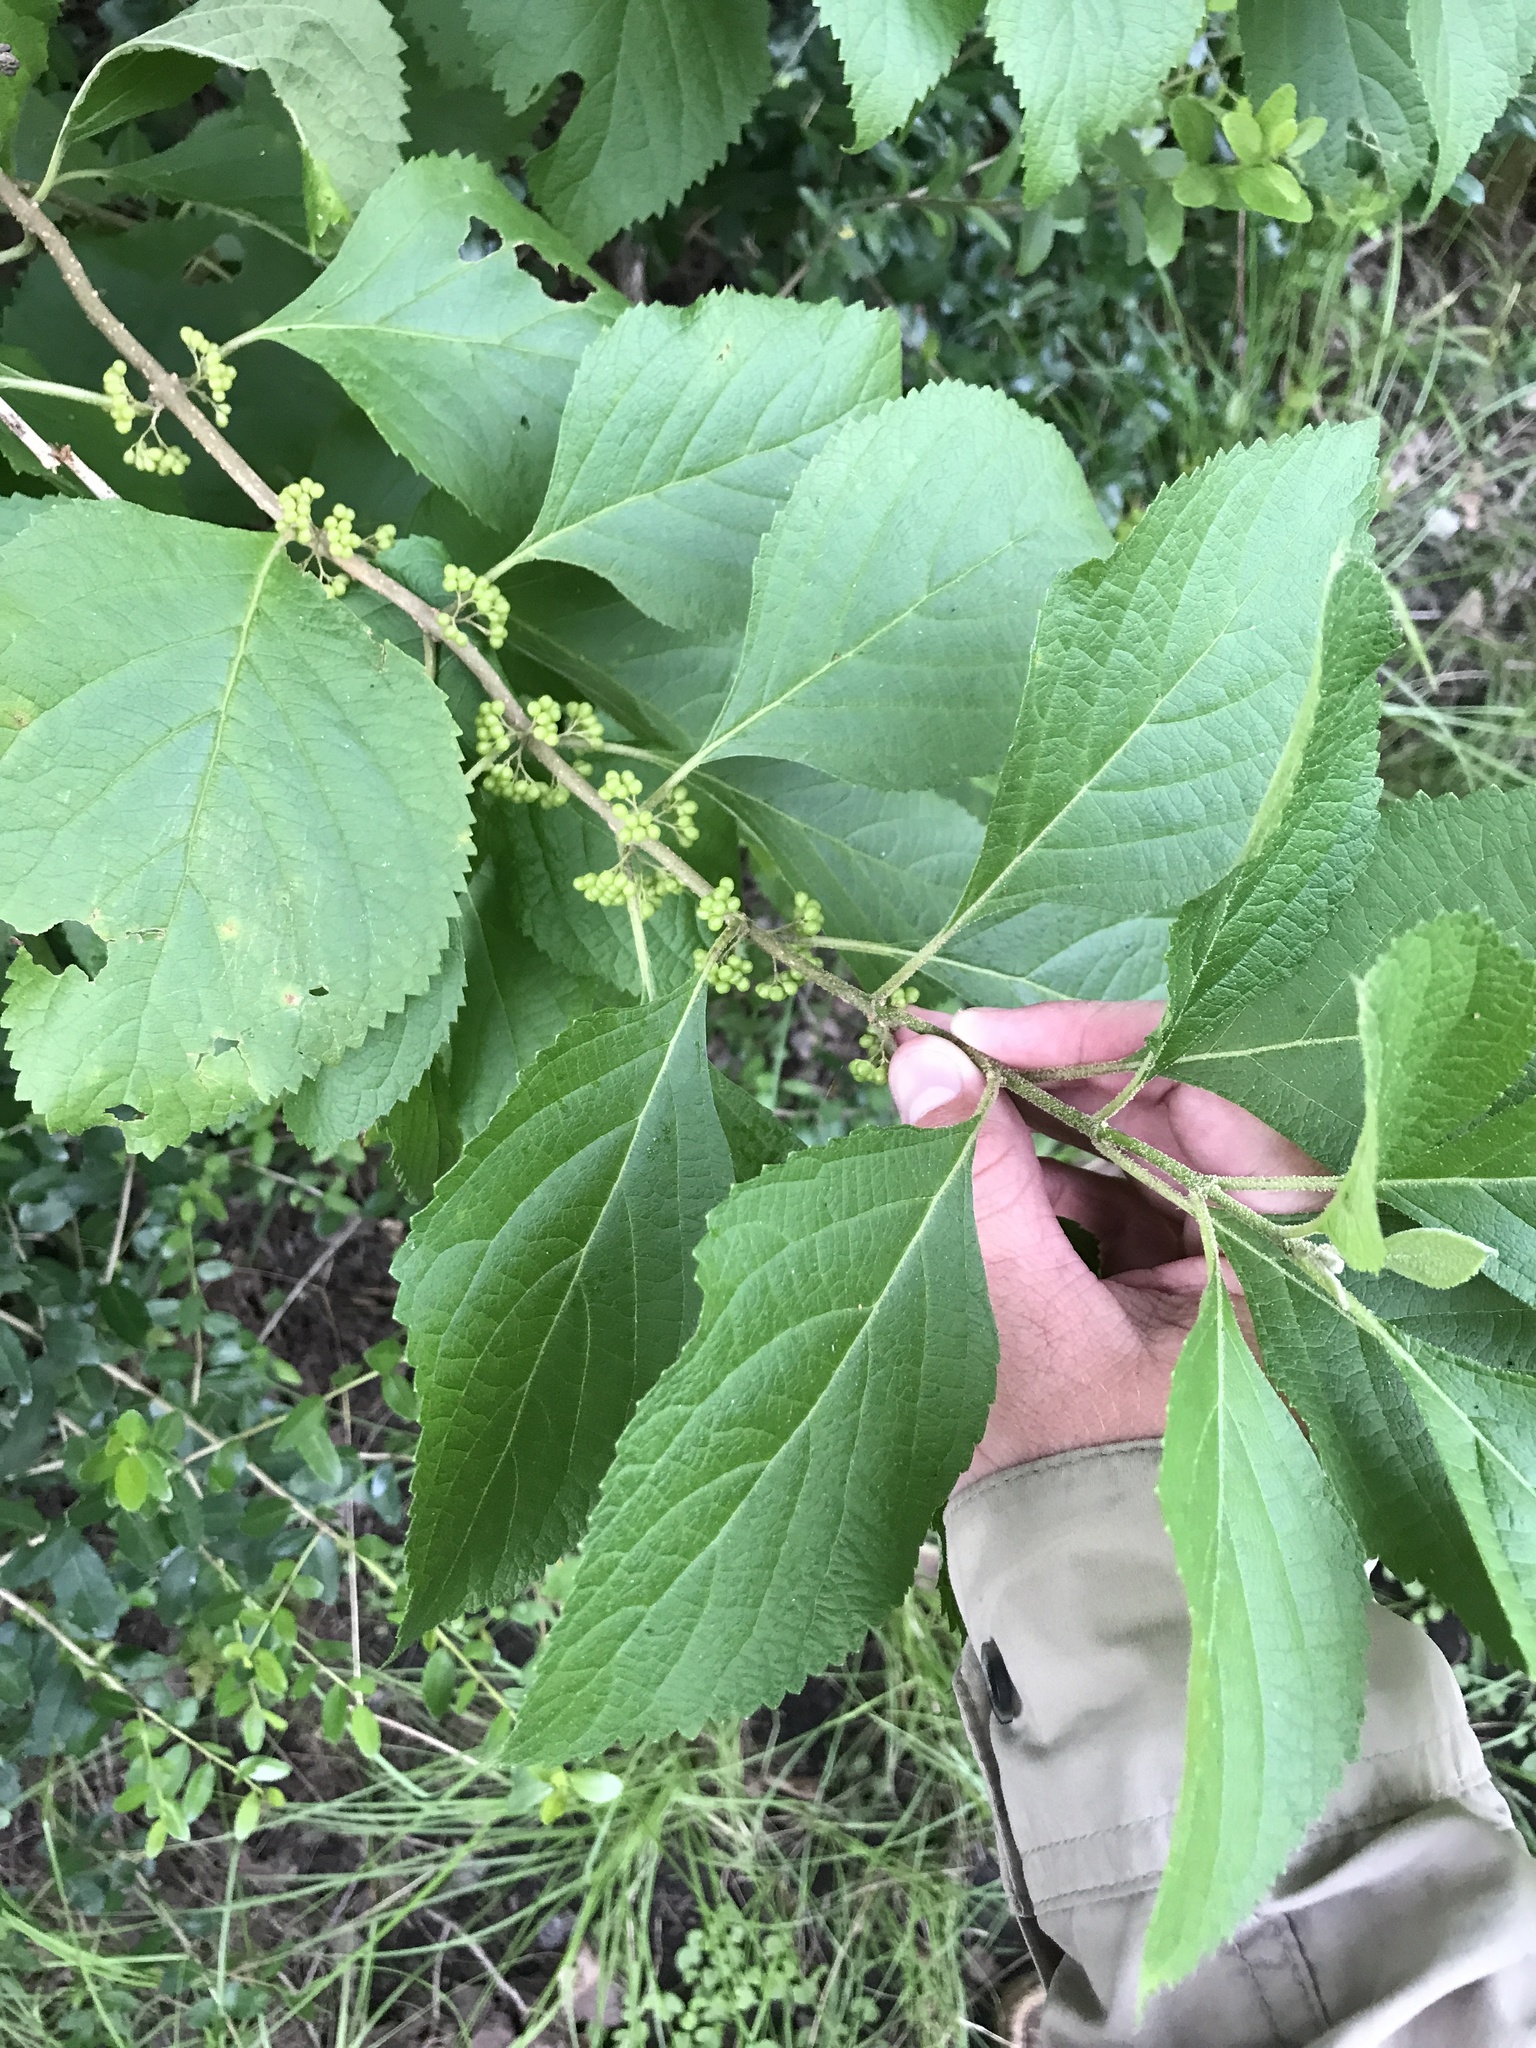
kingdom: Plantae
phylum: Tracheophyta
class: Magnoliopsida
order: Lamiales
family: Lamiaceae
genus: Callicarpa
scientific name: Callicarpa americana
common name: American beautyberry
